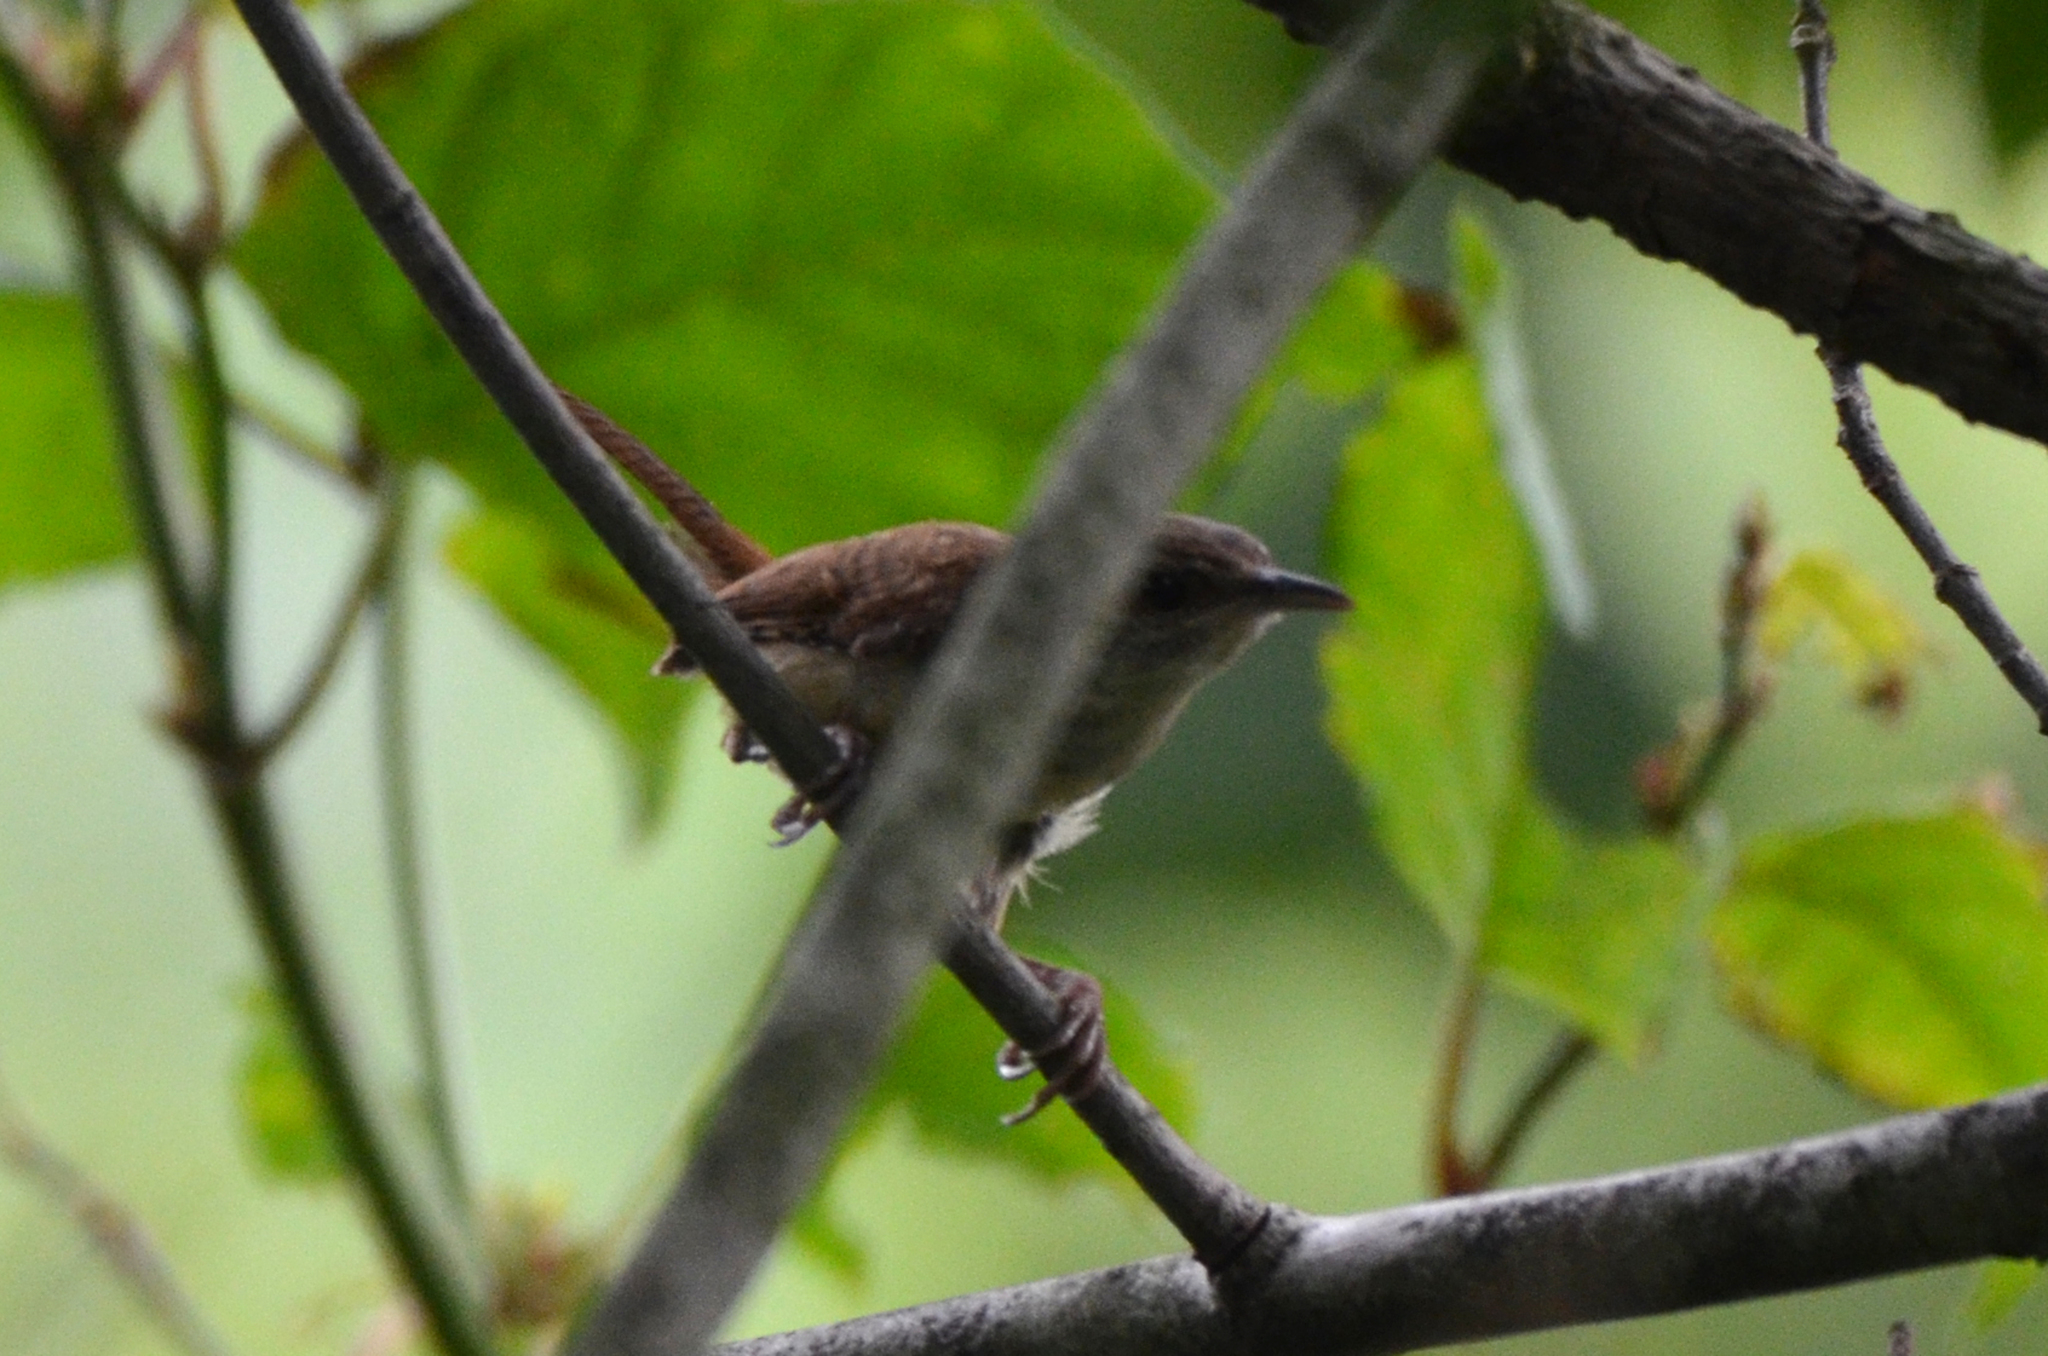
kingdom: Animalia
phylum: Chordata
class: Aves
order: Passeriformes
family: Troglodytidae
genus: Thryothorus
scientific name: Thryothorus ludovicianus
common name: Carolina wren
